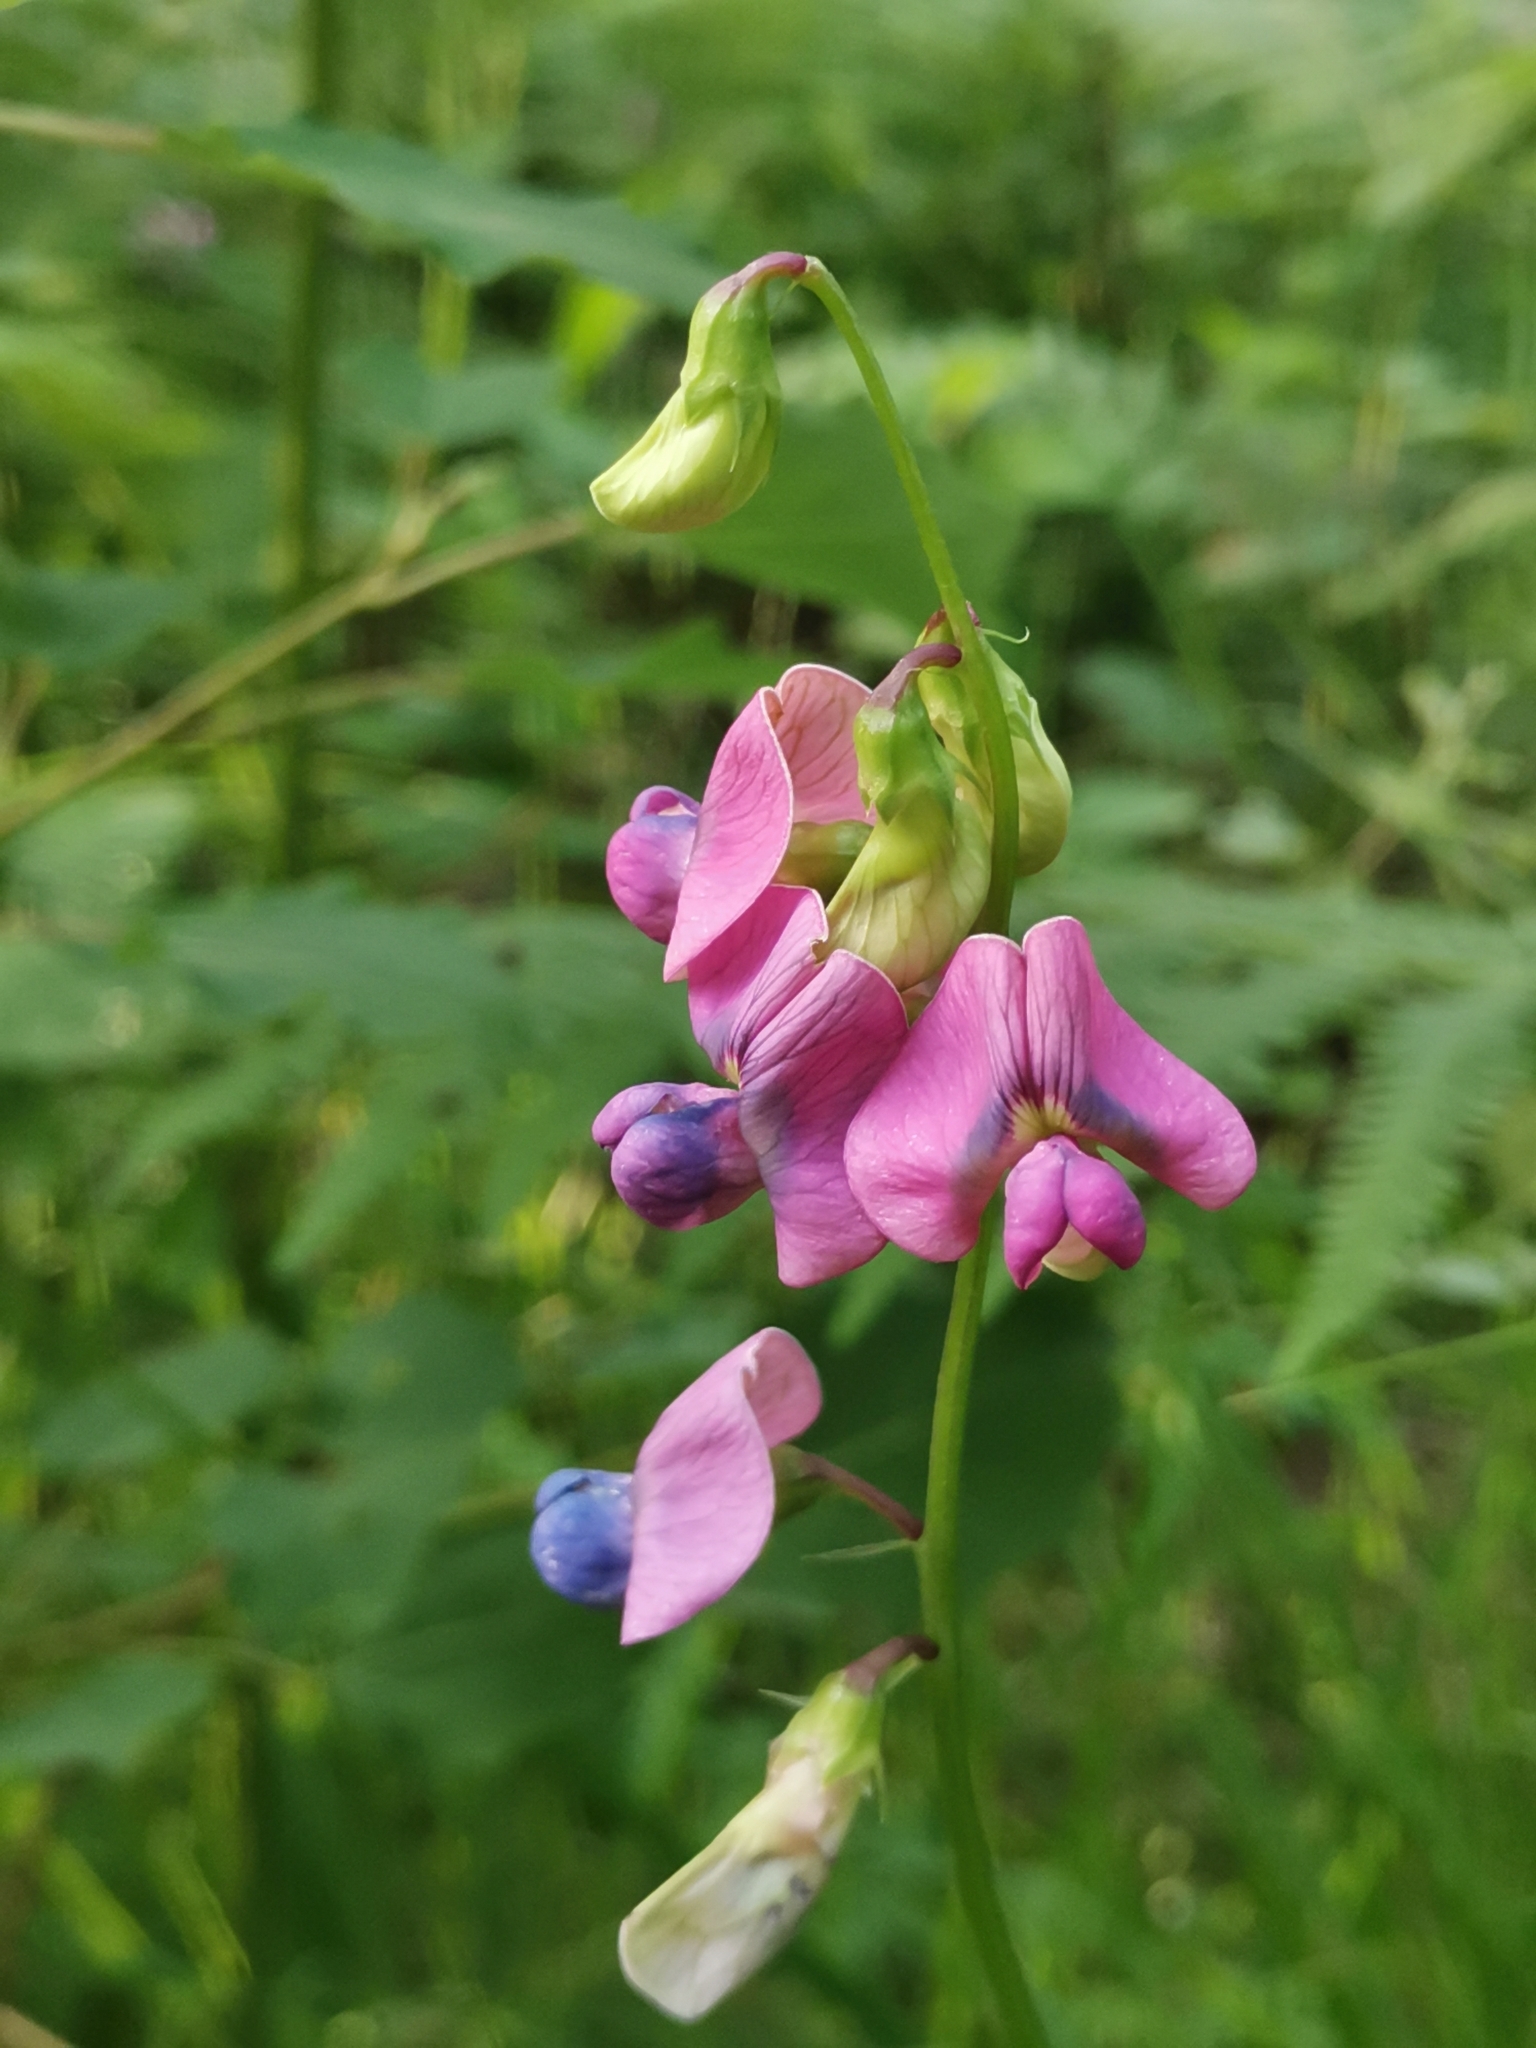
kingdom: Plantae
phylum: Tracheophyta
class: Magnoliopsida
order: Fabales
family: Fabaceae
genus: Lathyrus
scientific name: Lathyrus sylvestris
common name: Flat pea
